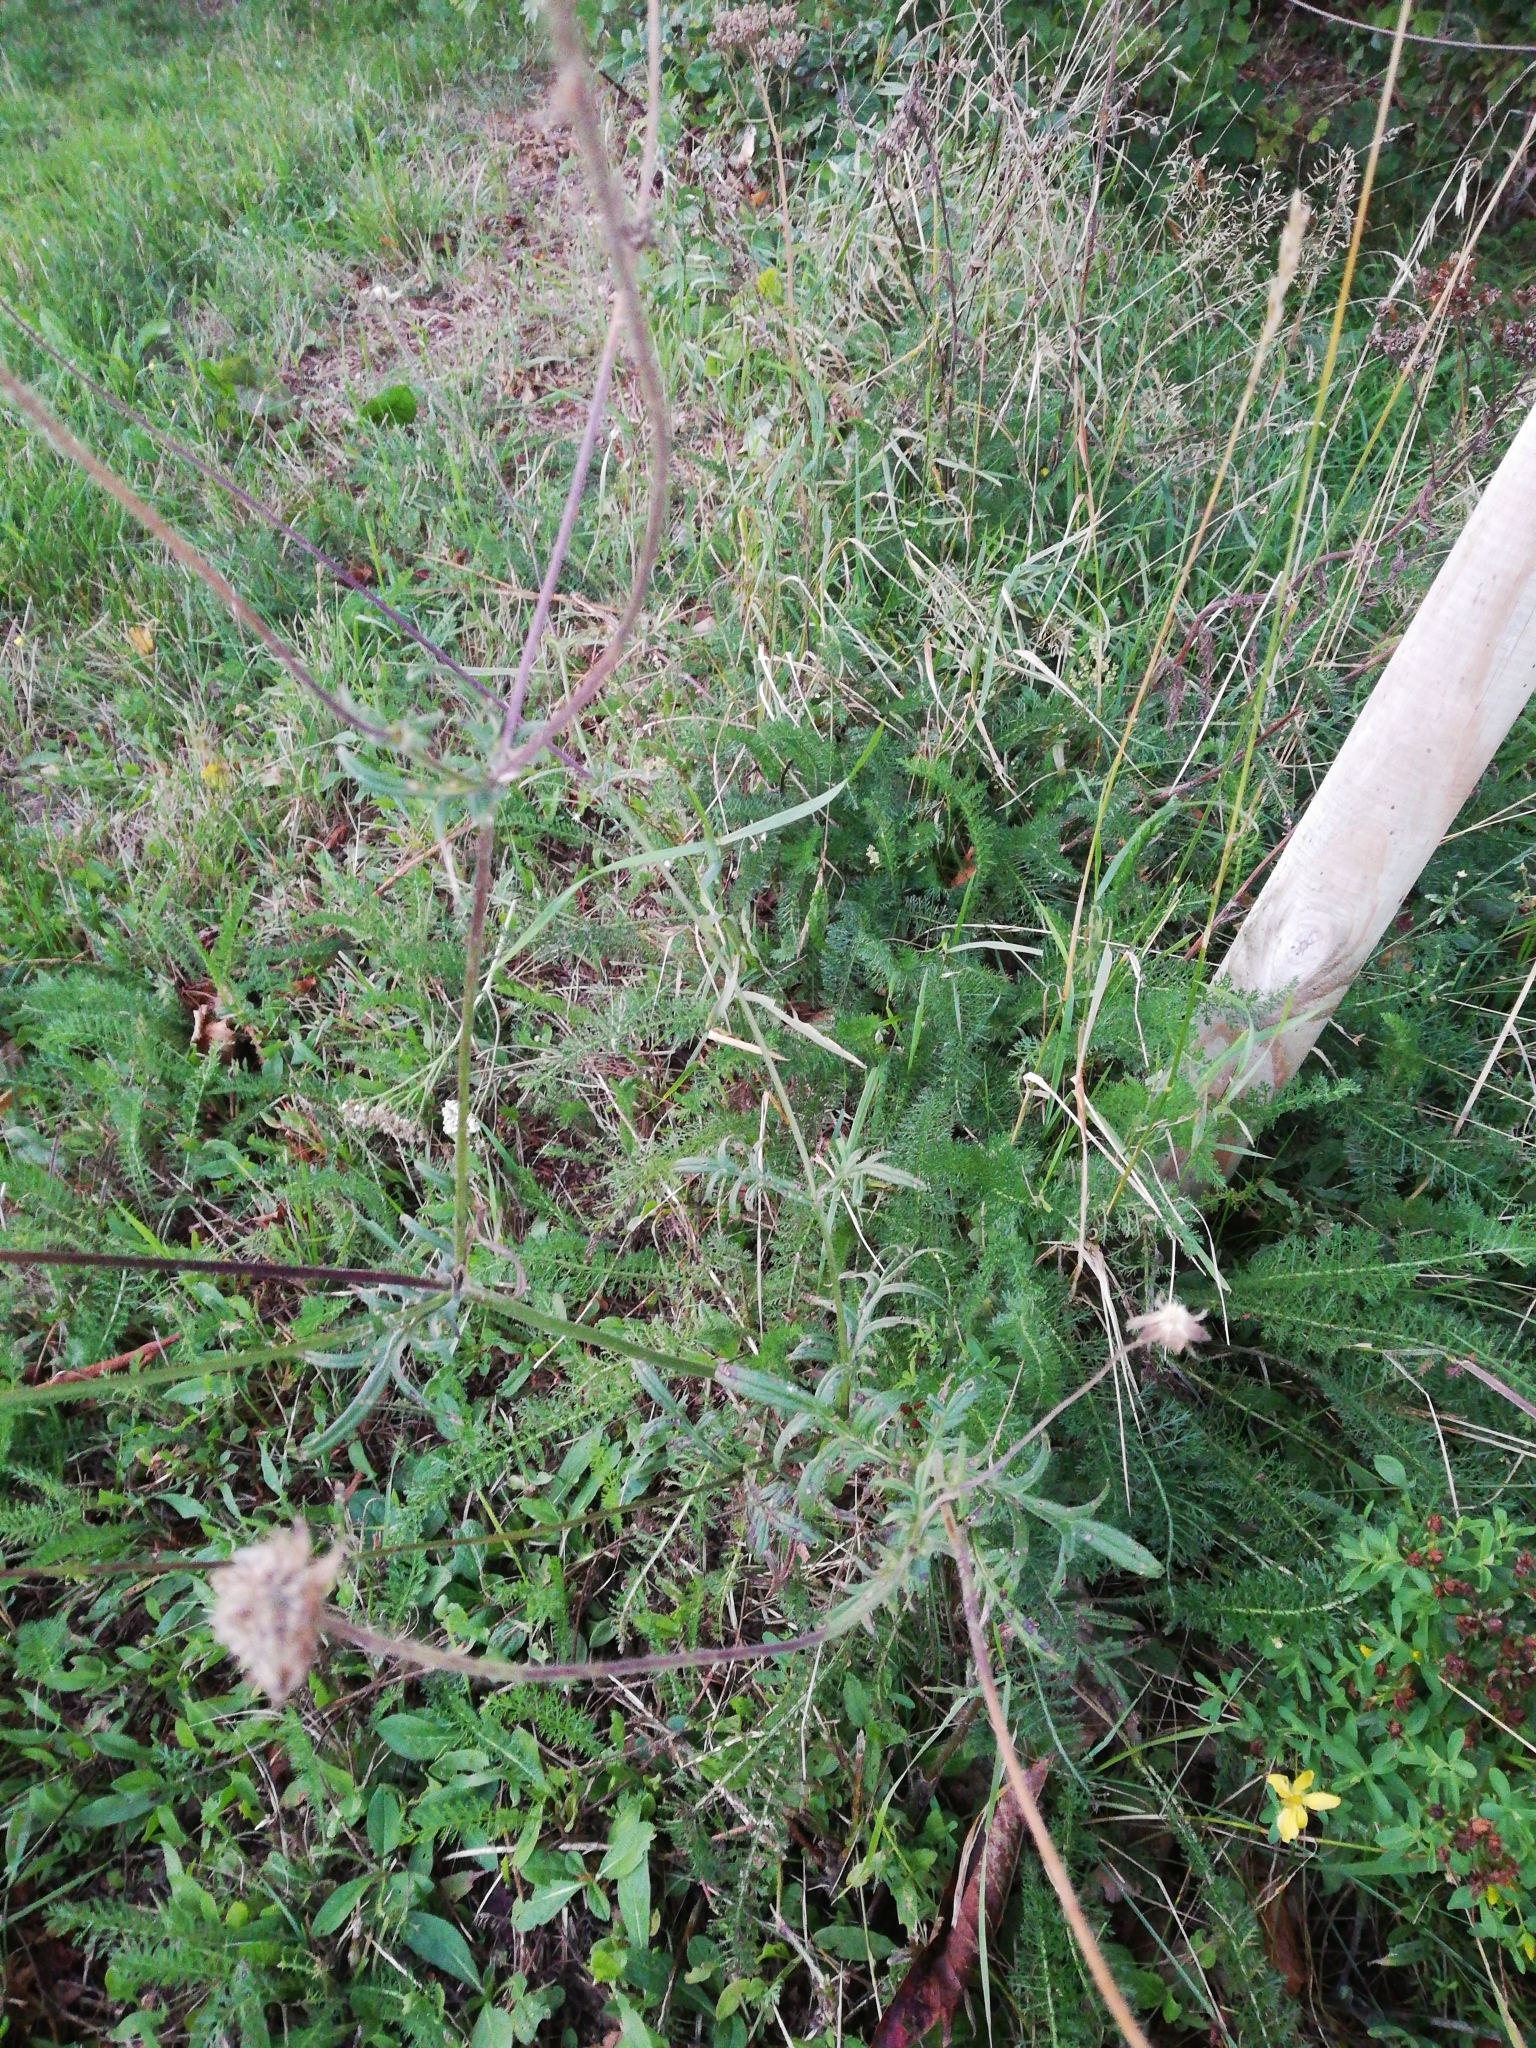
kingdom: Plantae
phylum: Tracheophyta
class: Magnoliopsida
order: Dipsacales
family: Caprifoliaceae
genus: Knautia
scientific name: Knautia arvensis
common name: Field scabiosa
